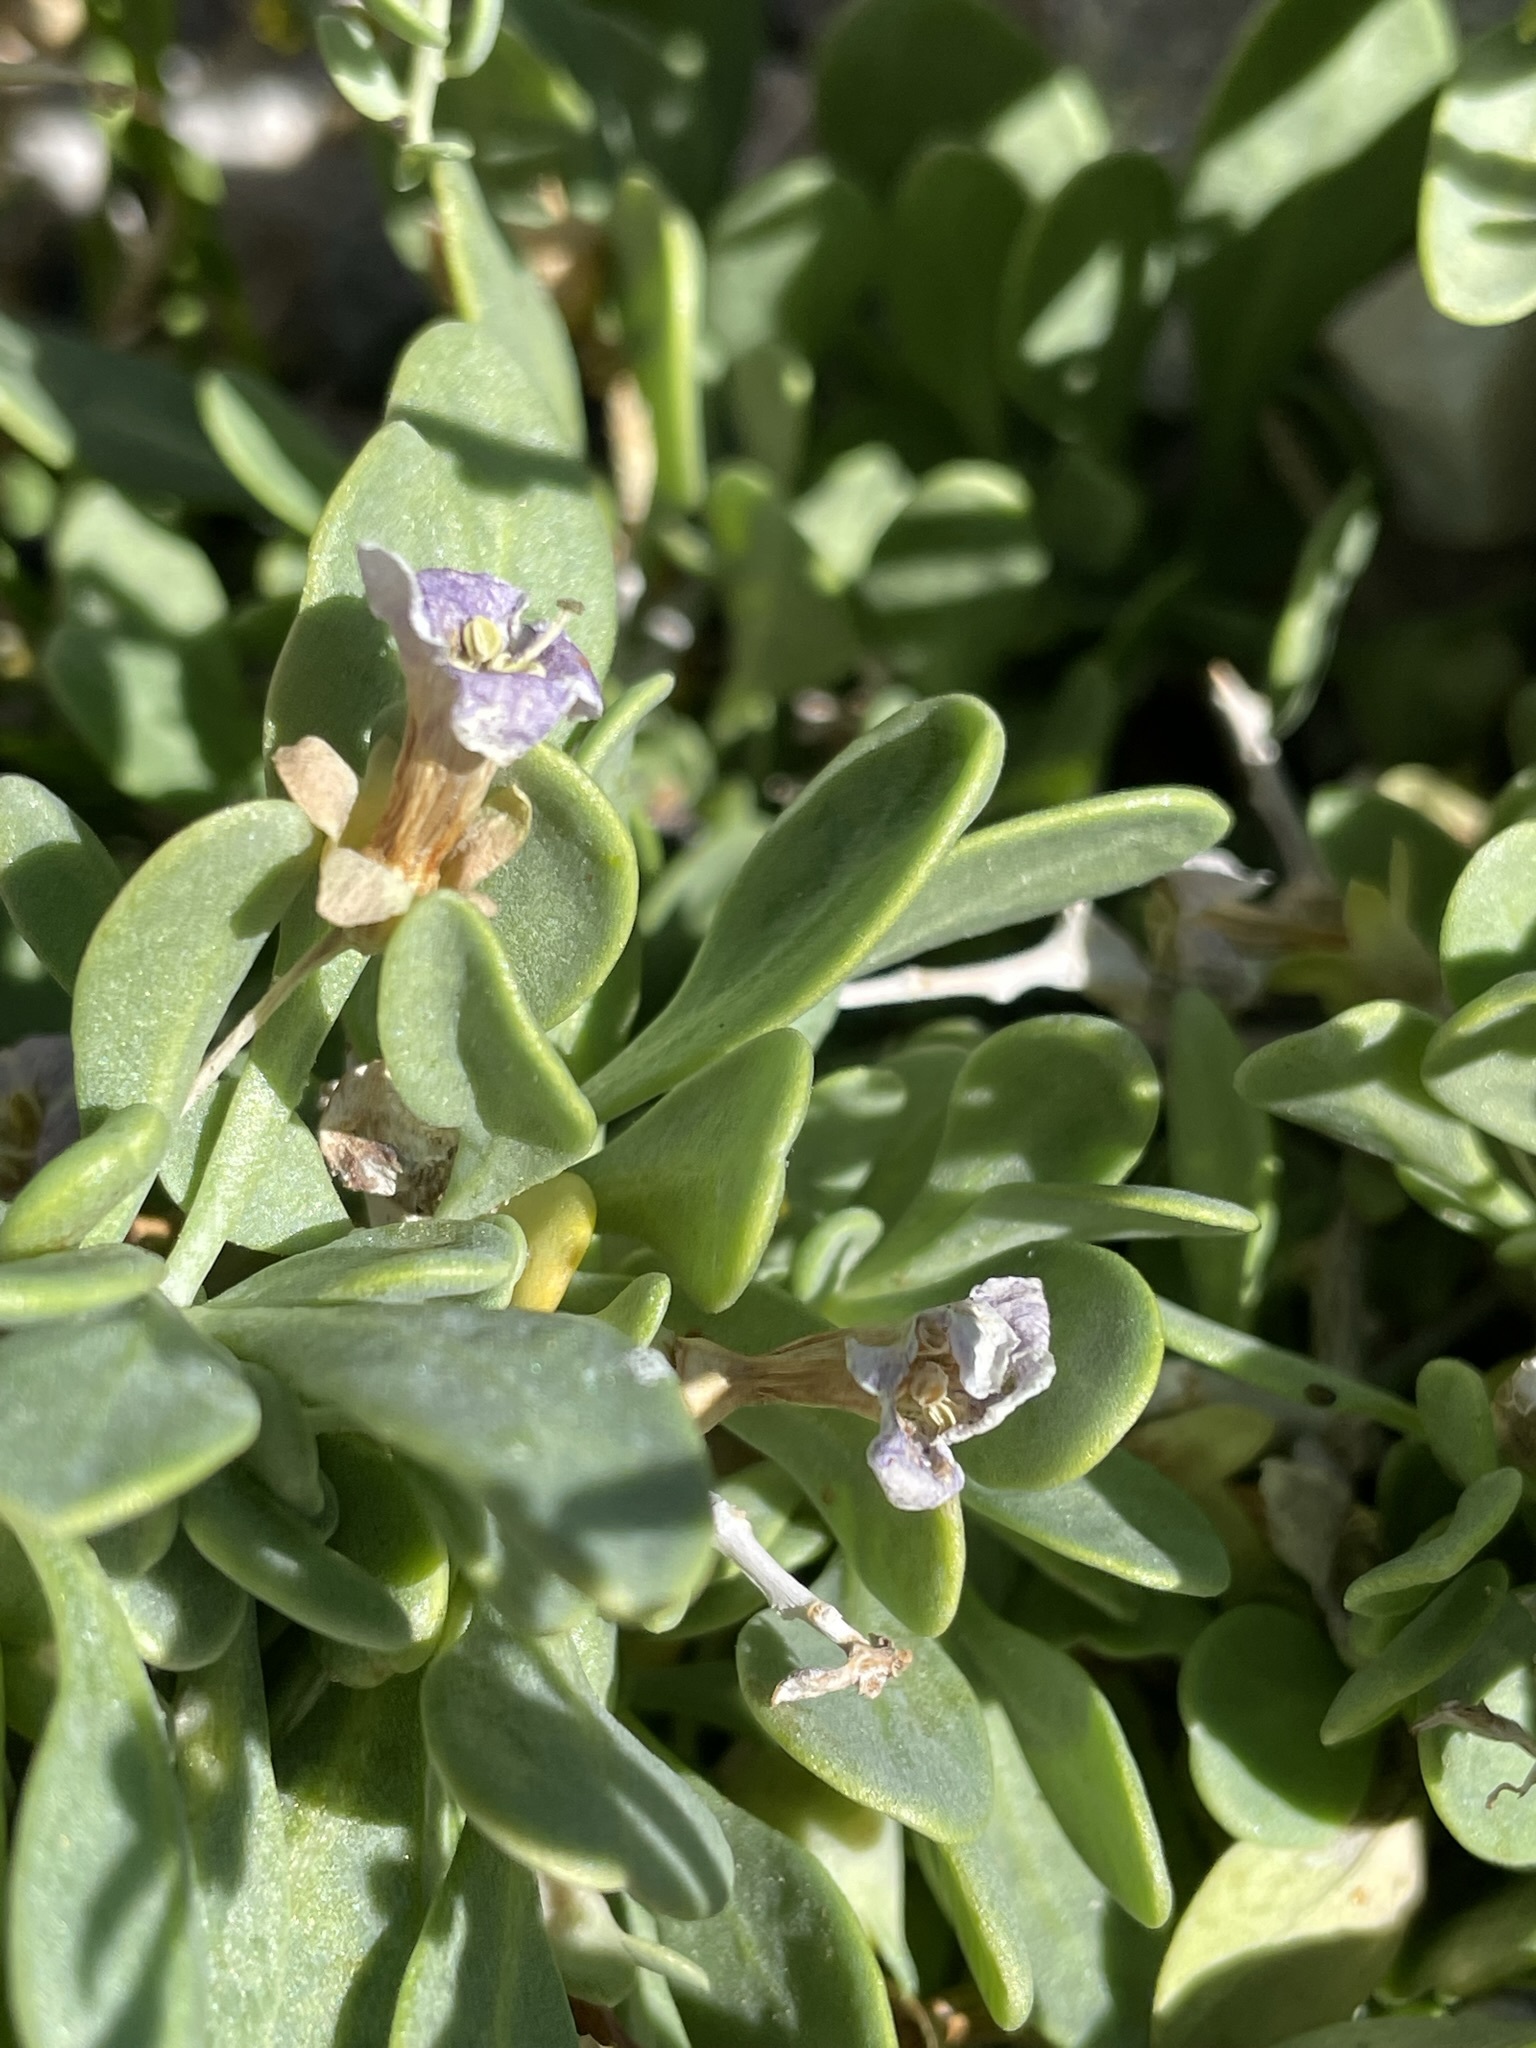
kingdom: Plantae
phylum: Tracheophyta
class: Magnoliopsida
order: Solanales
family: Solanaceae
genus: Lycium
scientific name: Lycium pallidum
